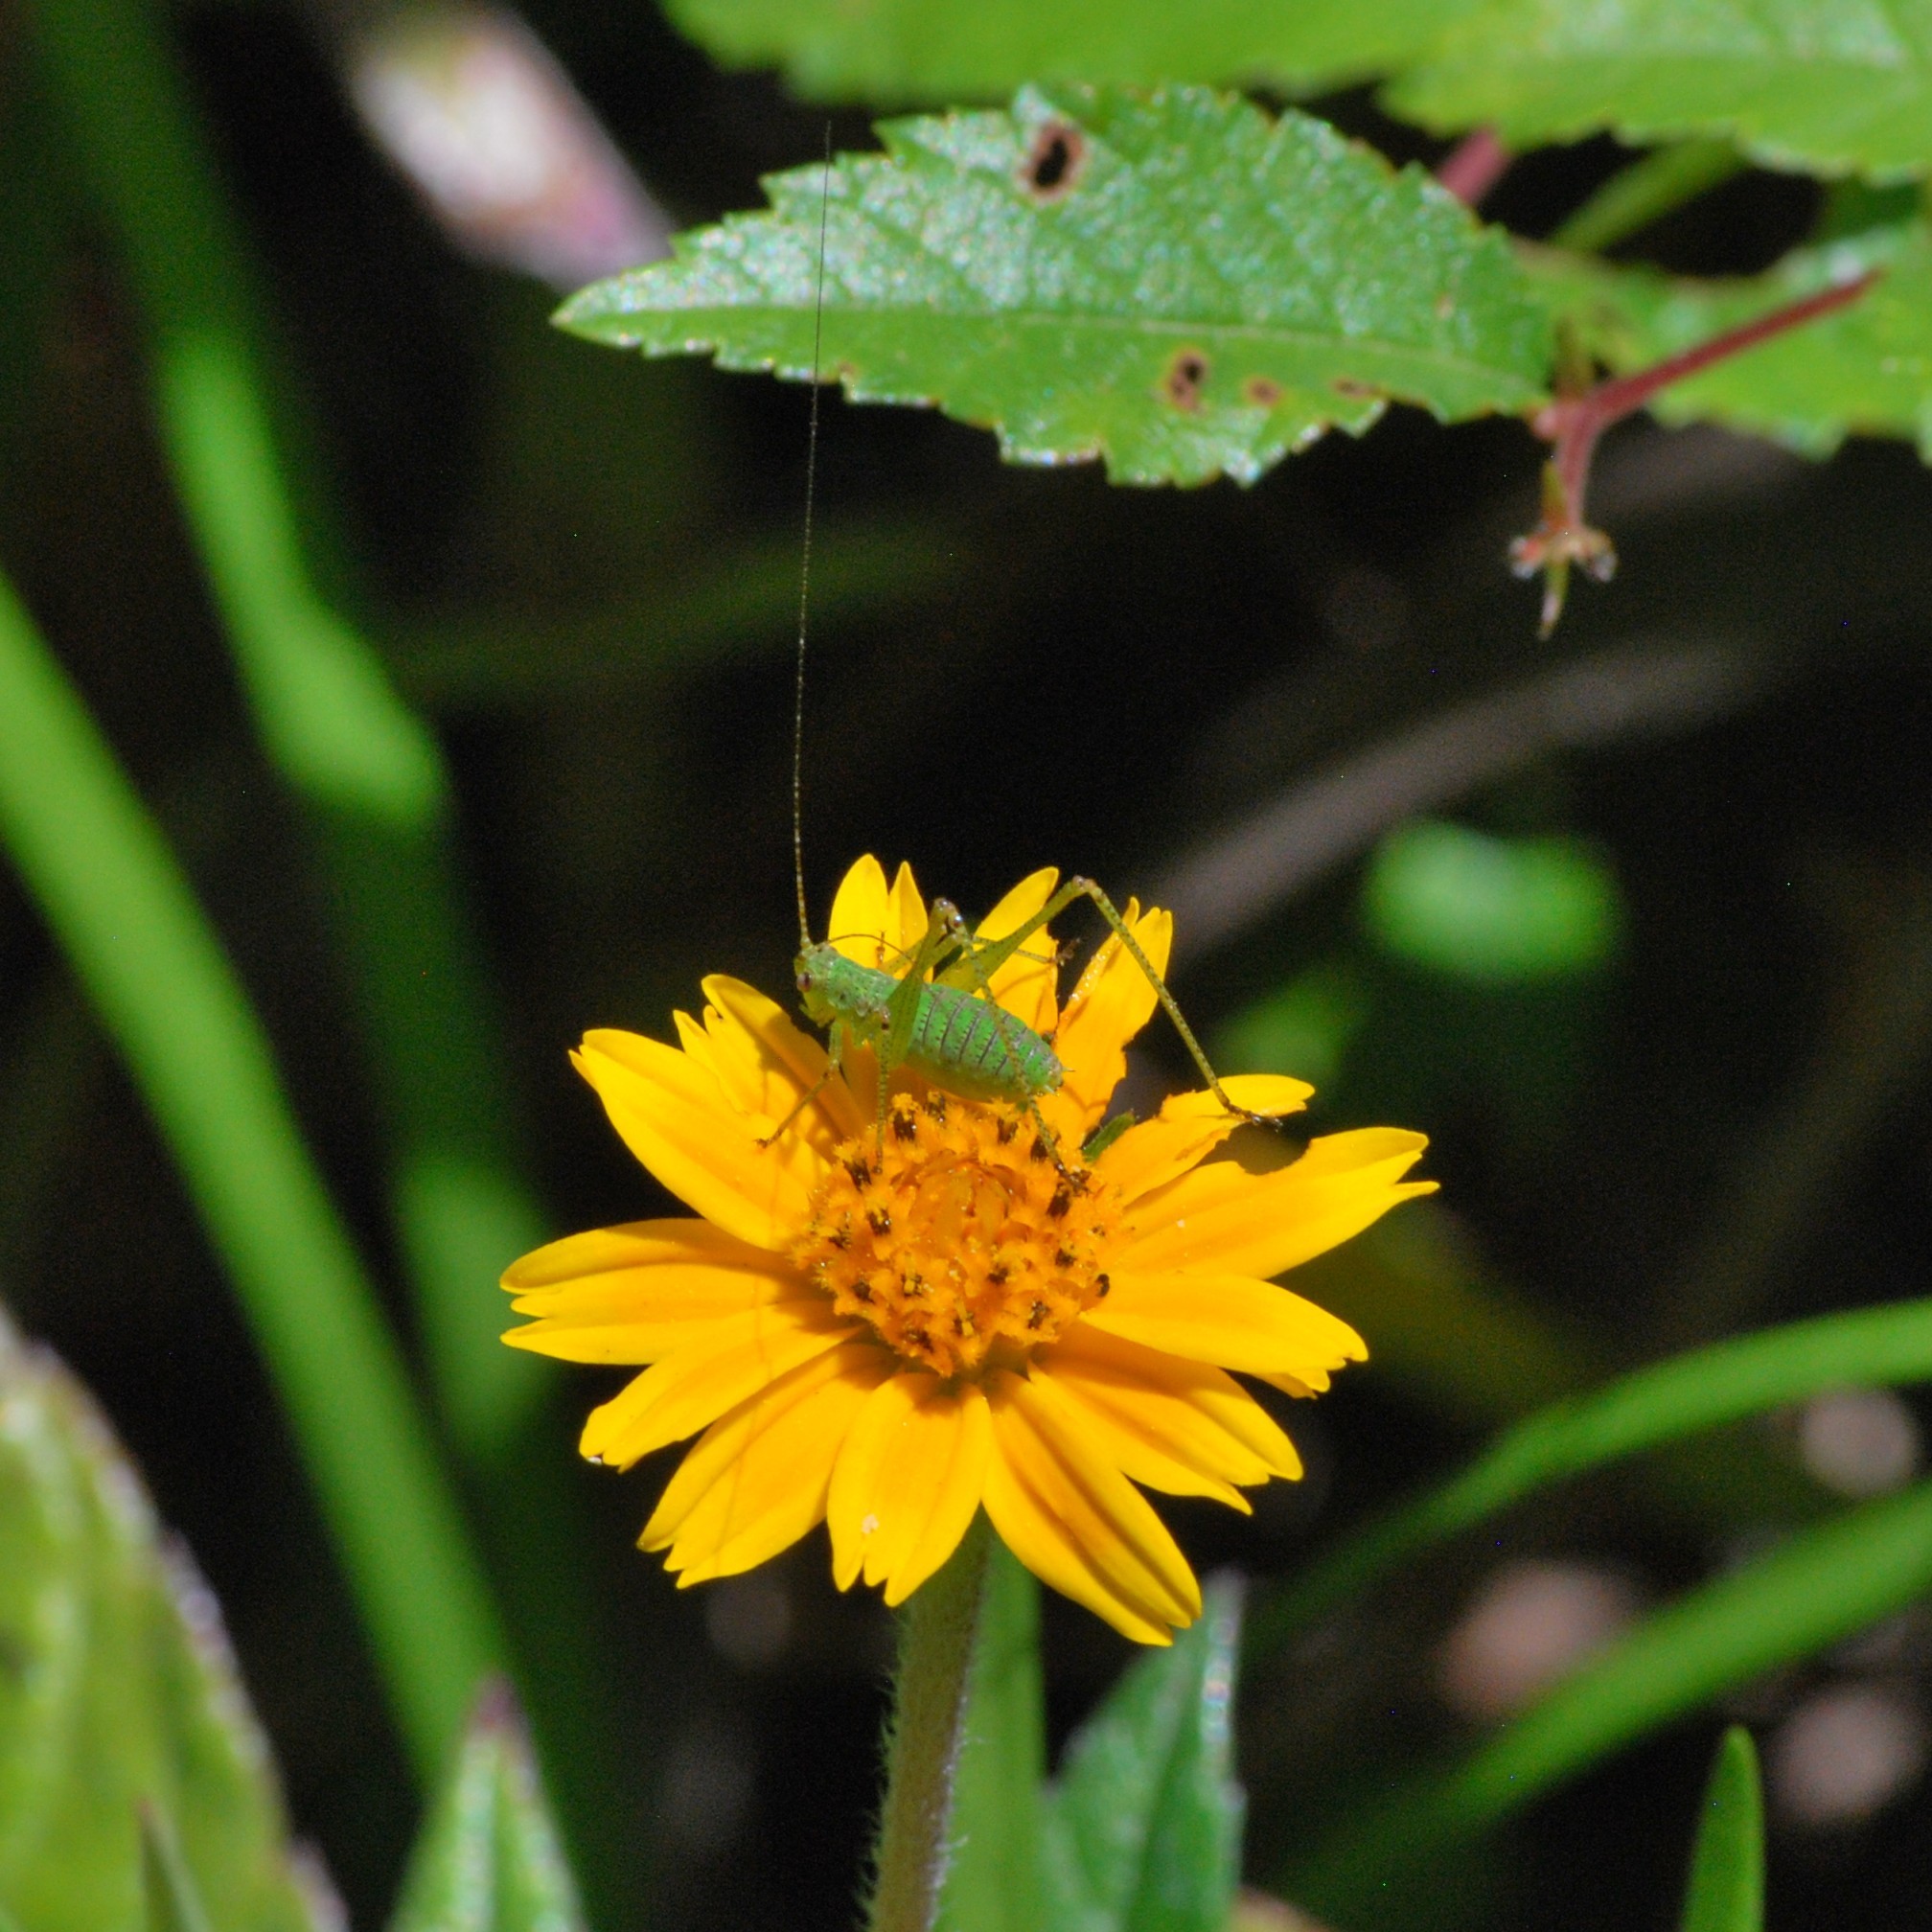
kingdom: Animalia
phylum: Arthropoda
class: Insecta
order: Orthoptera
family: Tettigoniidae
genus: Phaneroptera
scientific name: Phaneroptera nana
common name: Southern sickle bush-cricket
